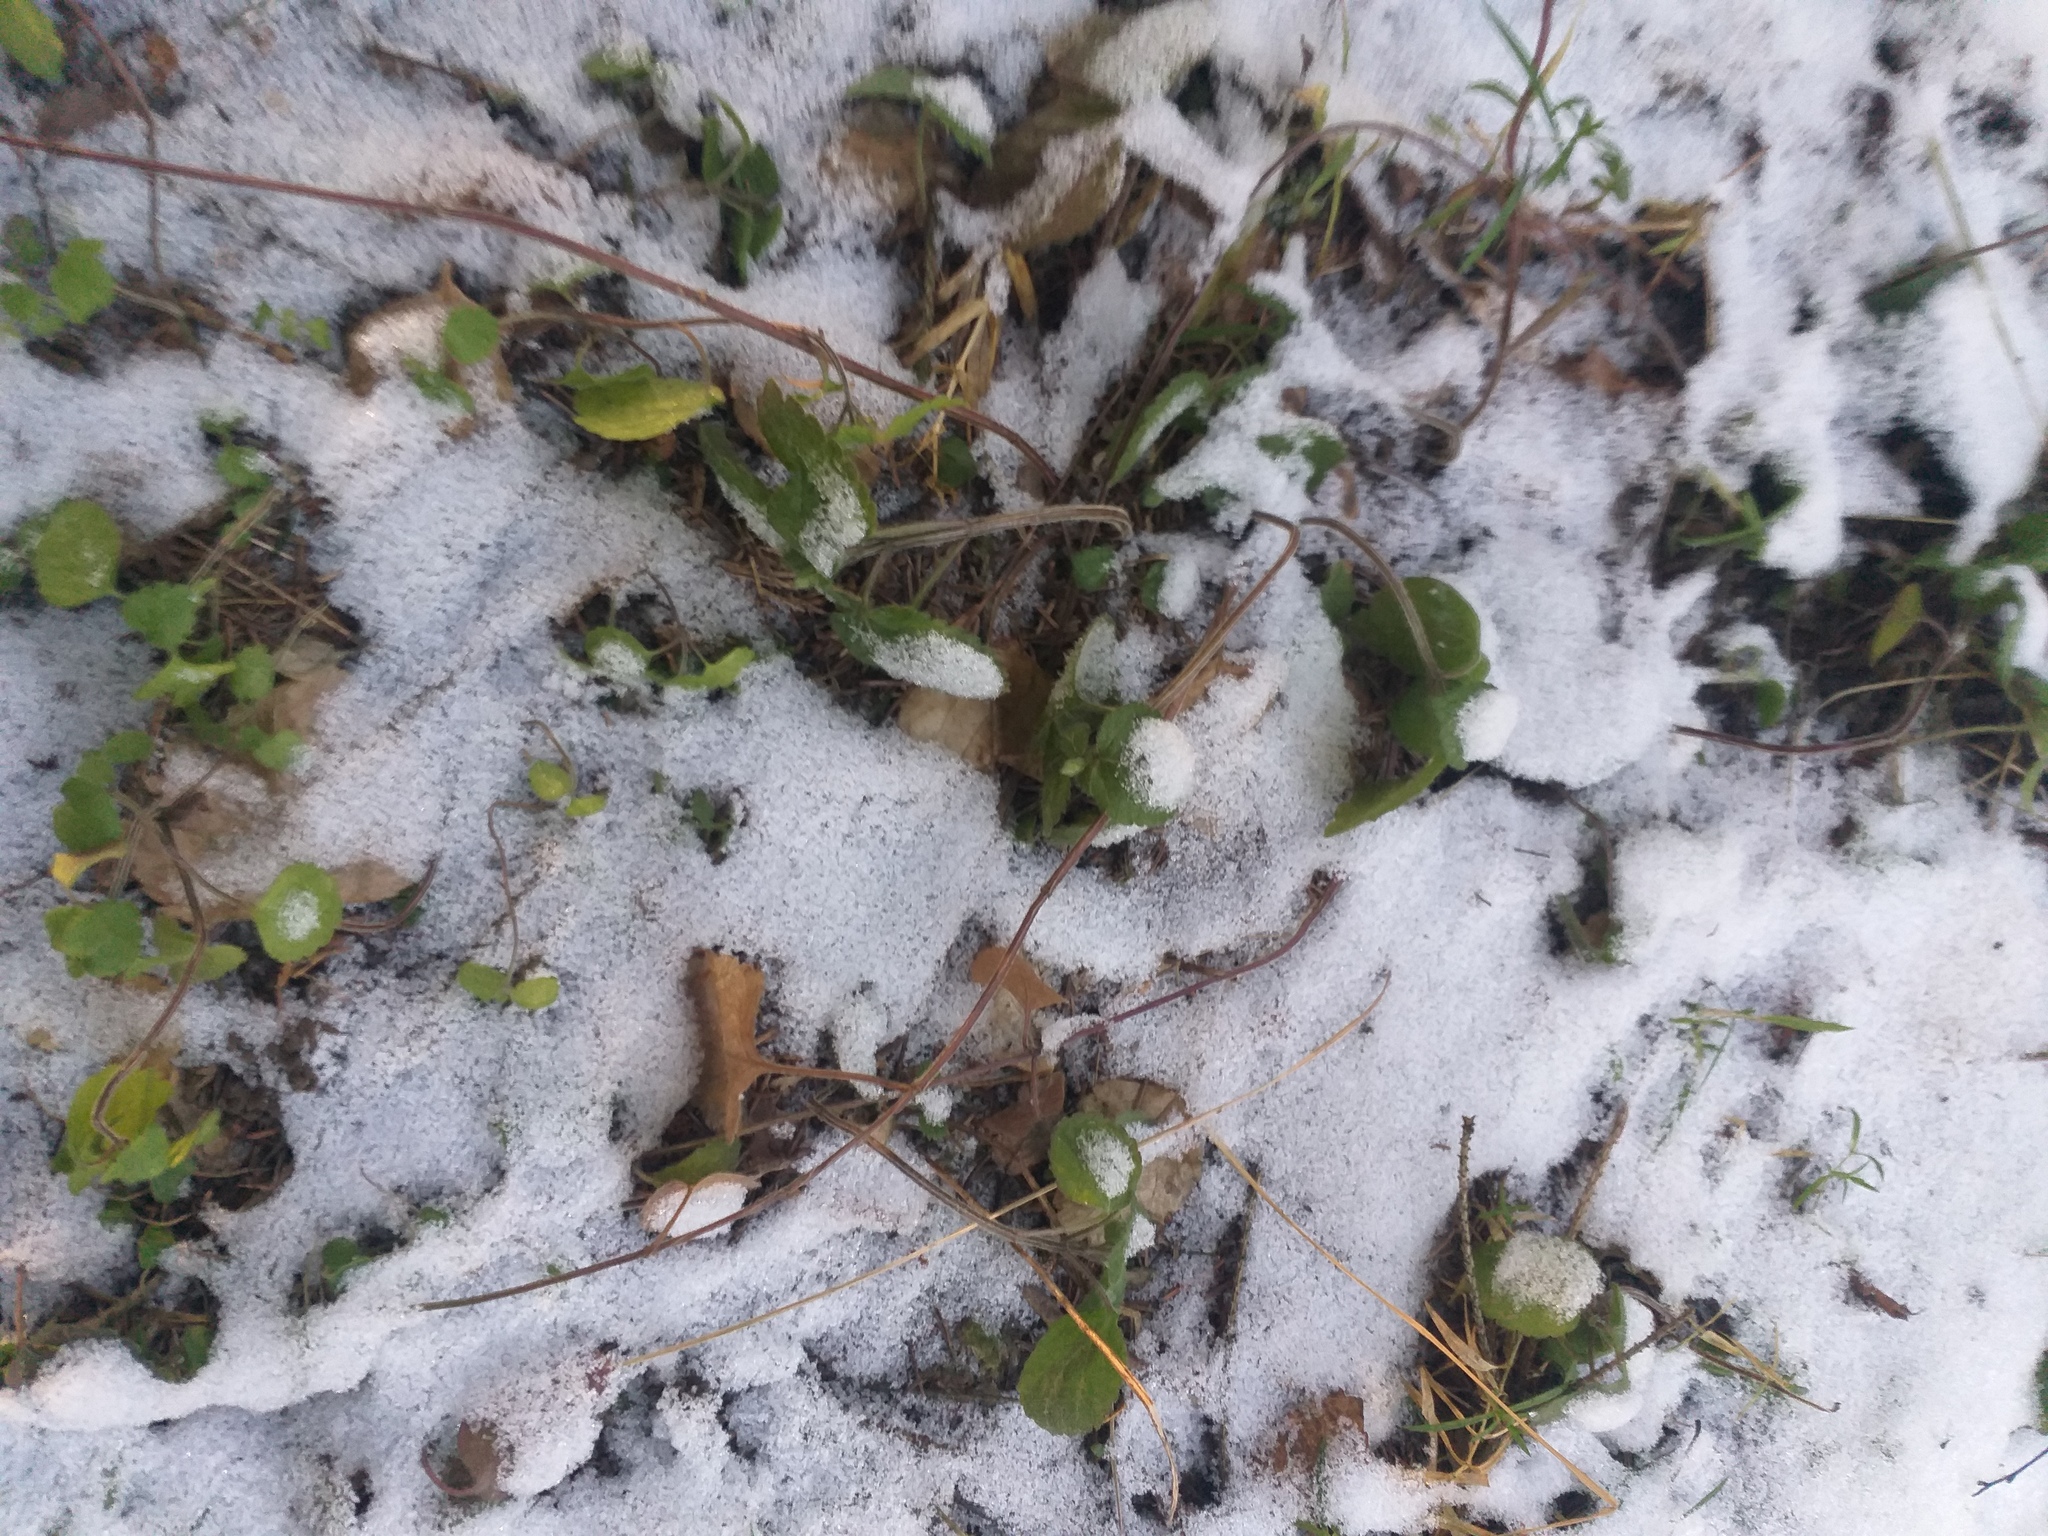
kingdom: Plantae
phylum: Tracheophyta
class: Magnoliopsida
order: Lamiales
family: Lamiaceae
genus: Lamium
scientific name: Lamium galeobdolon
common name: Yellow archangel
